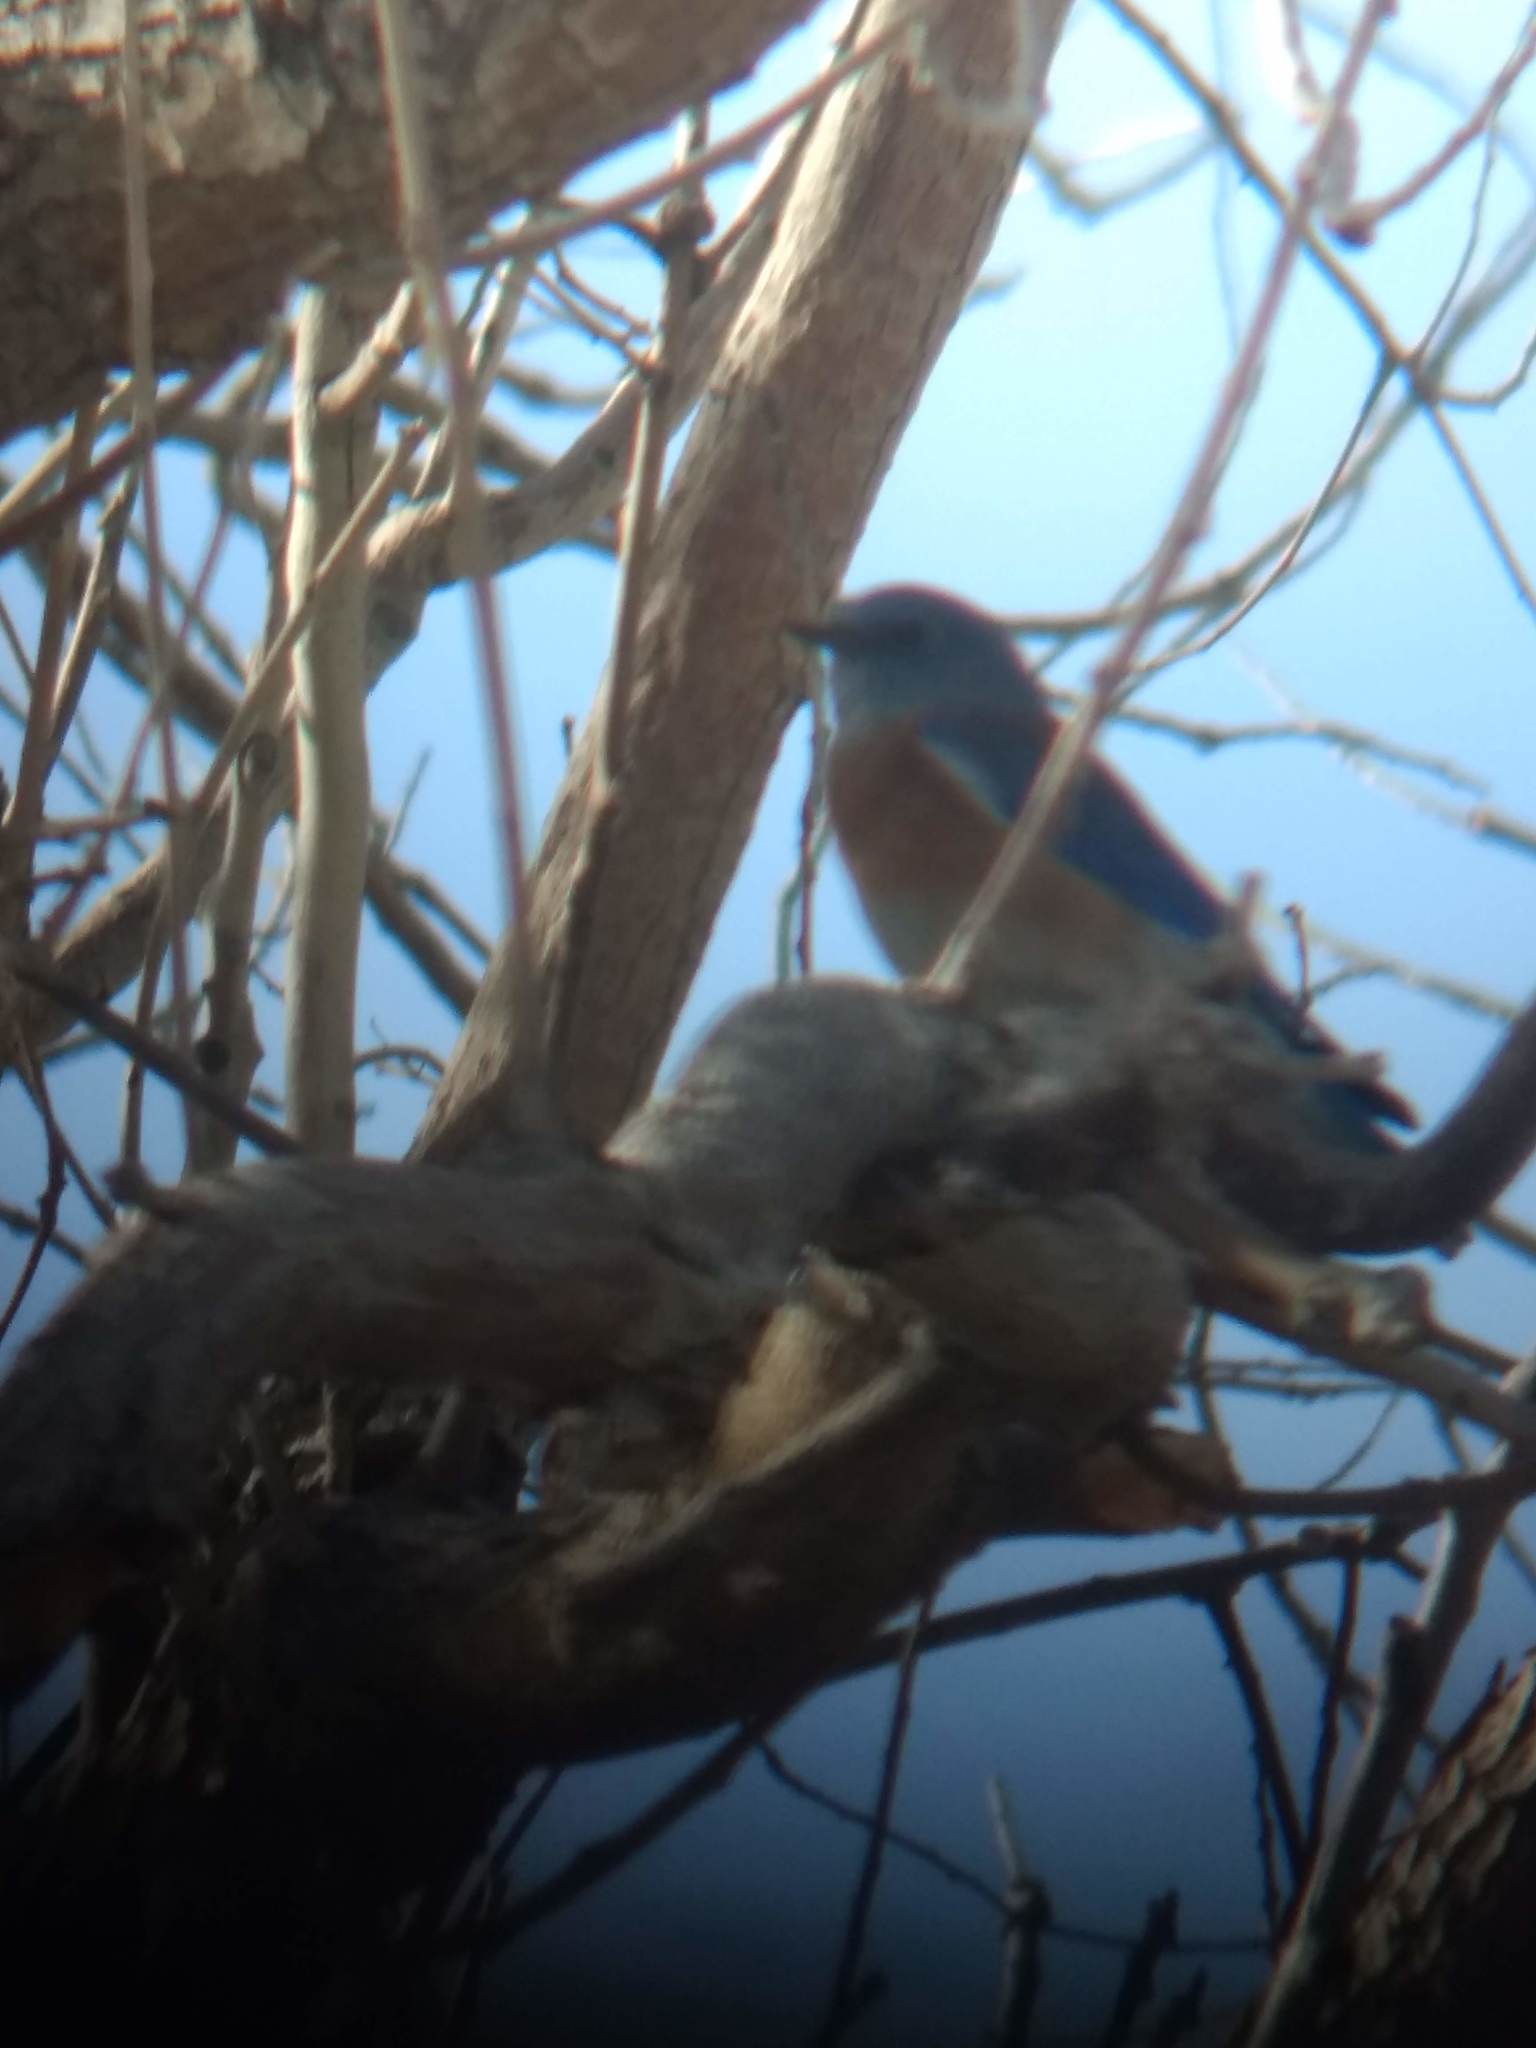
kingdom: Animalia
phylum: Chordata
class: Aves
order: Passeriformes
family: Turdidae
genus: Sialia
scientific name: Sialia mexicana
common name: Western bluebird
